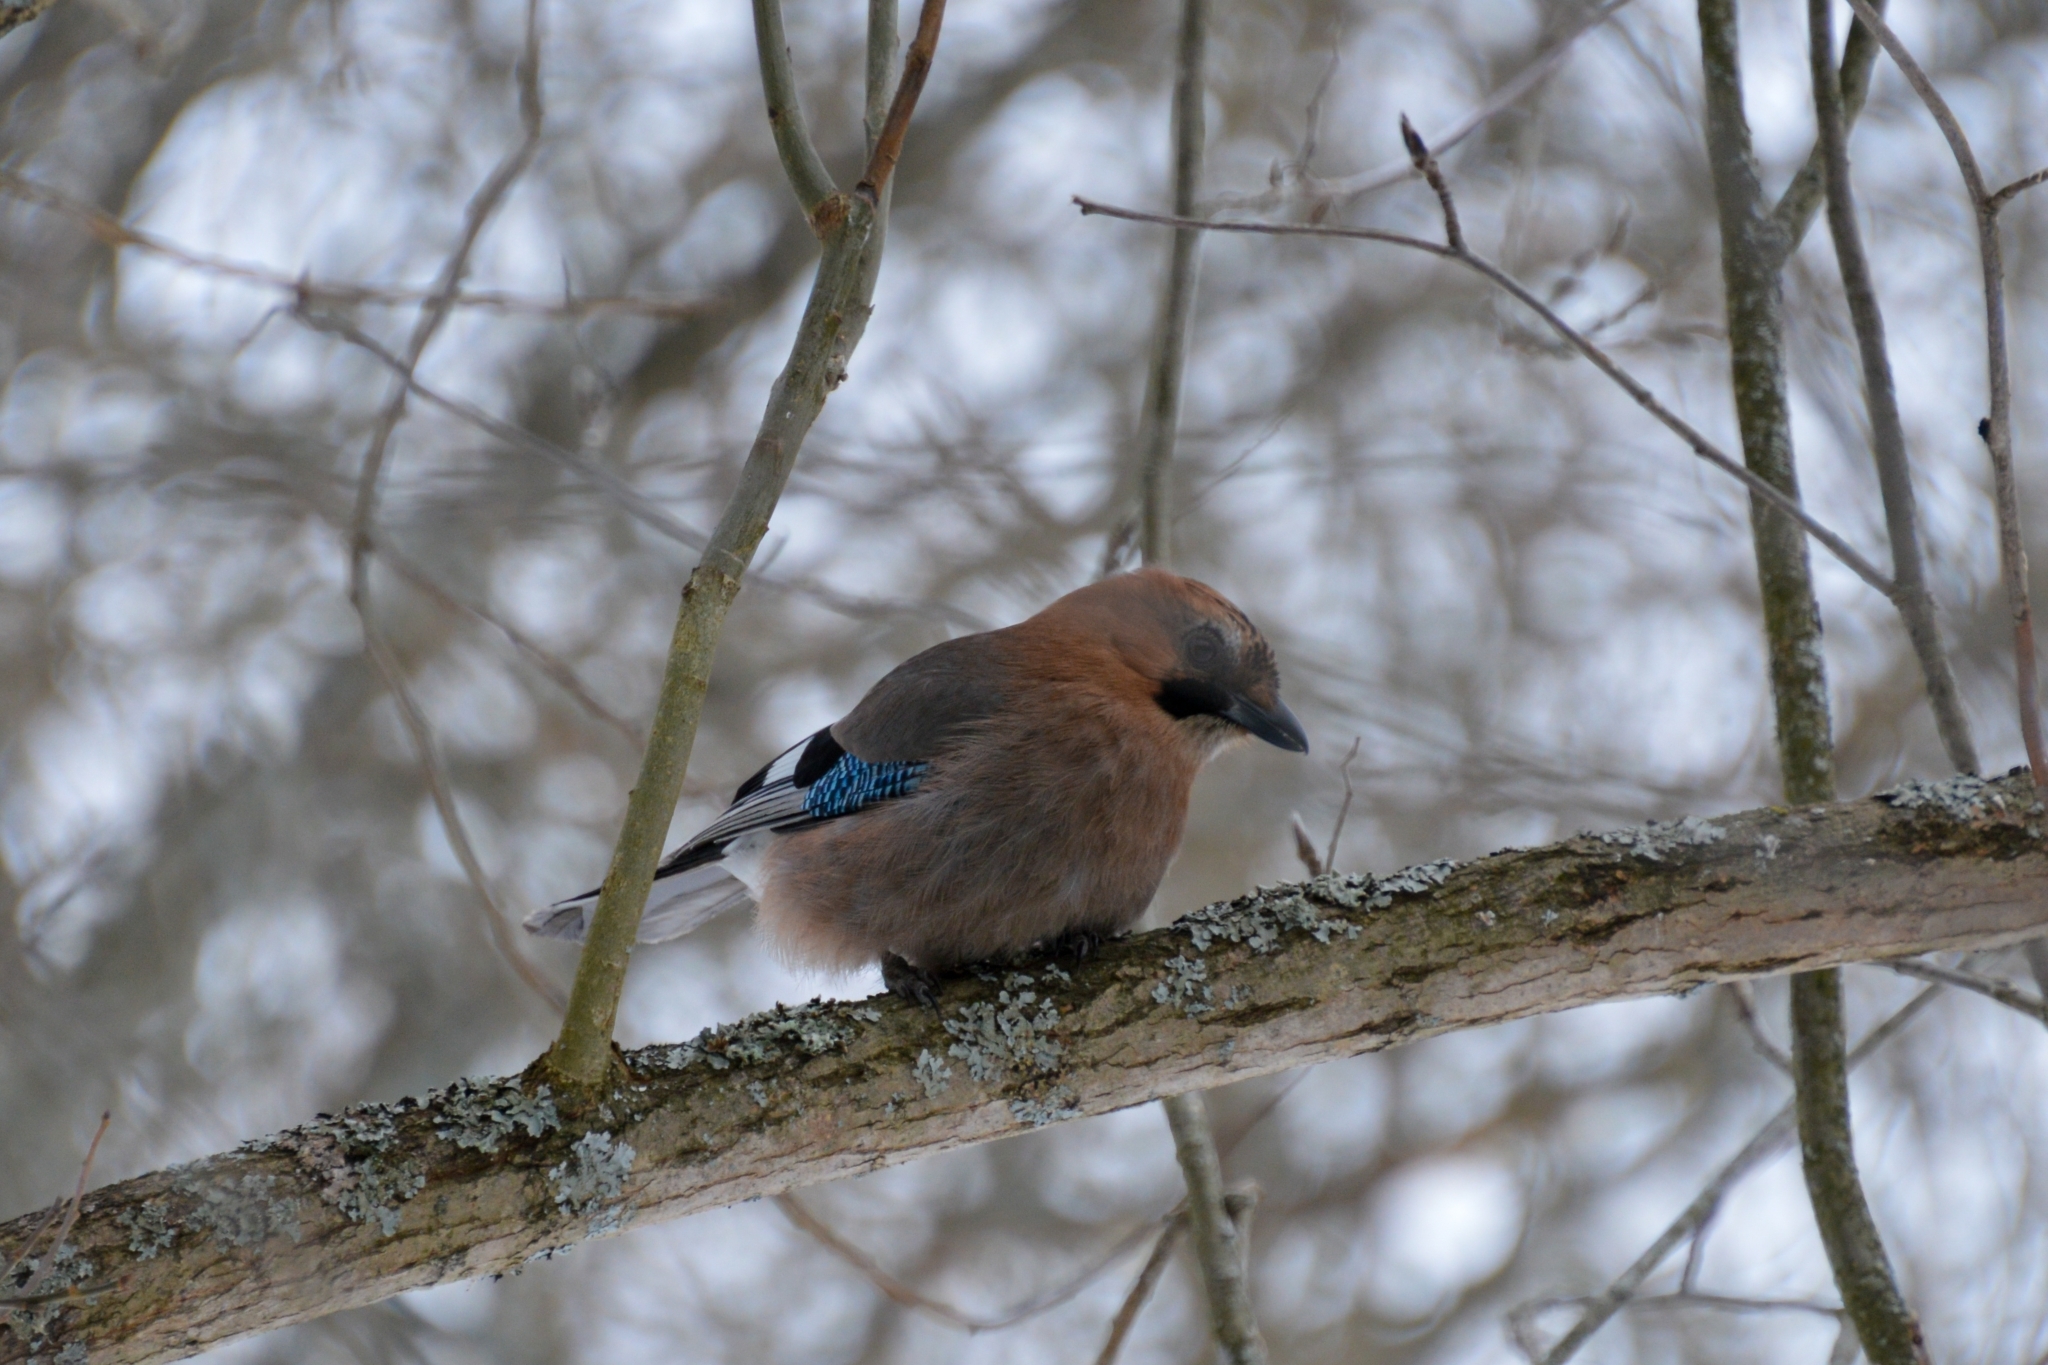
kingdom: Animalia
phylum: Chordata
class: Aves
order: Passeriformes
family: Corvidae
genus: Garrulus
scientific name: Garrulus glandarius
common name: Eurasian jay
